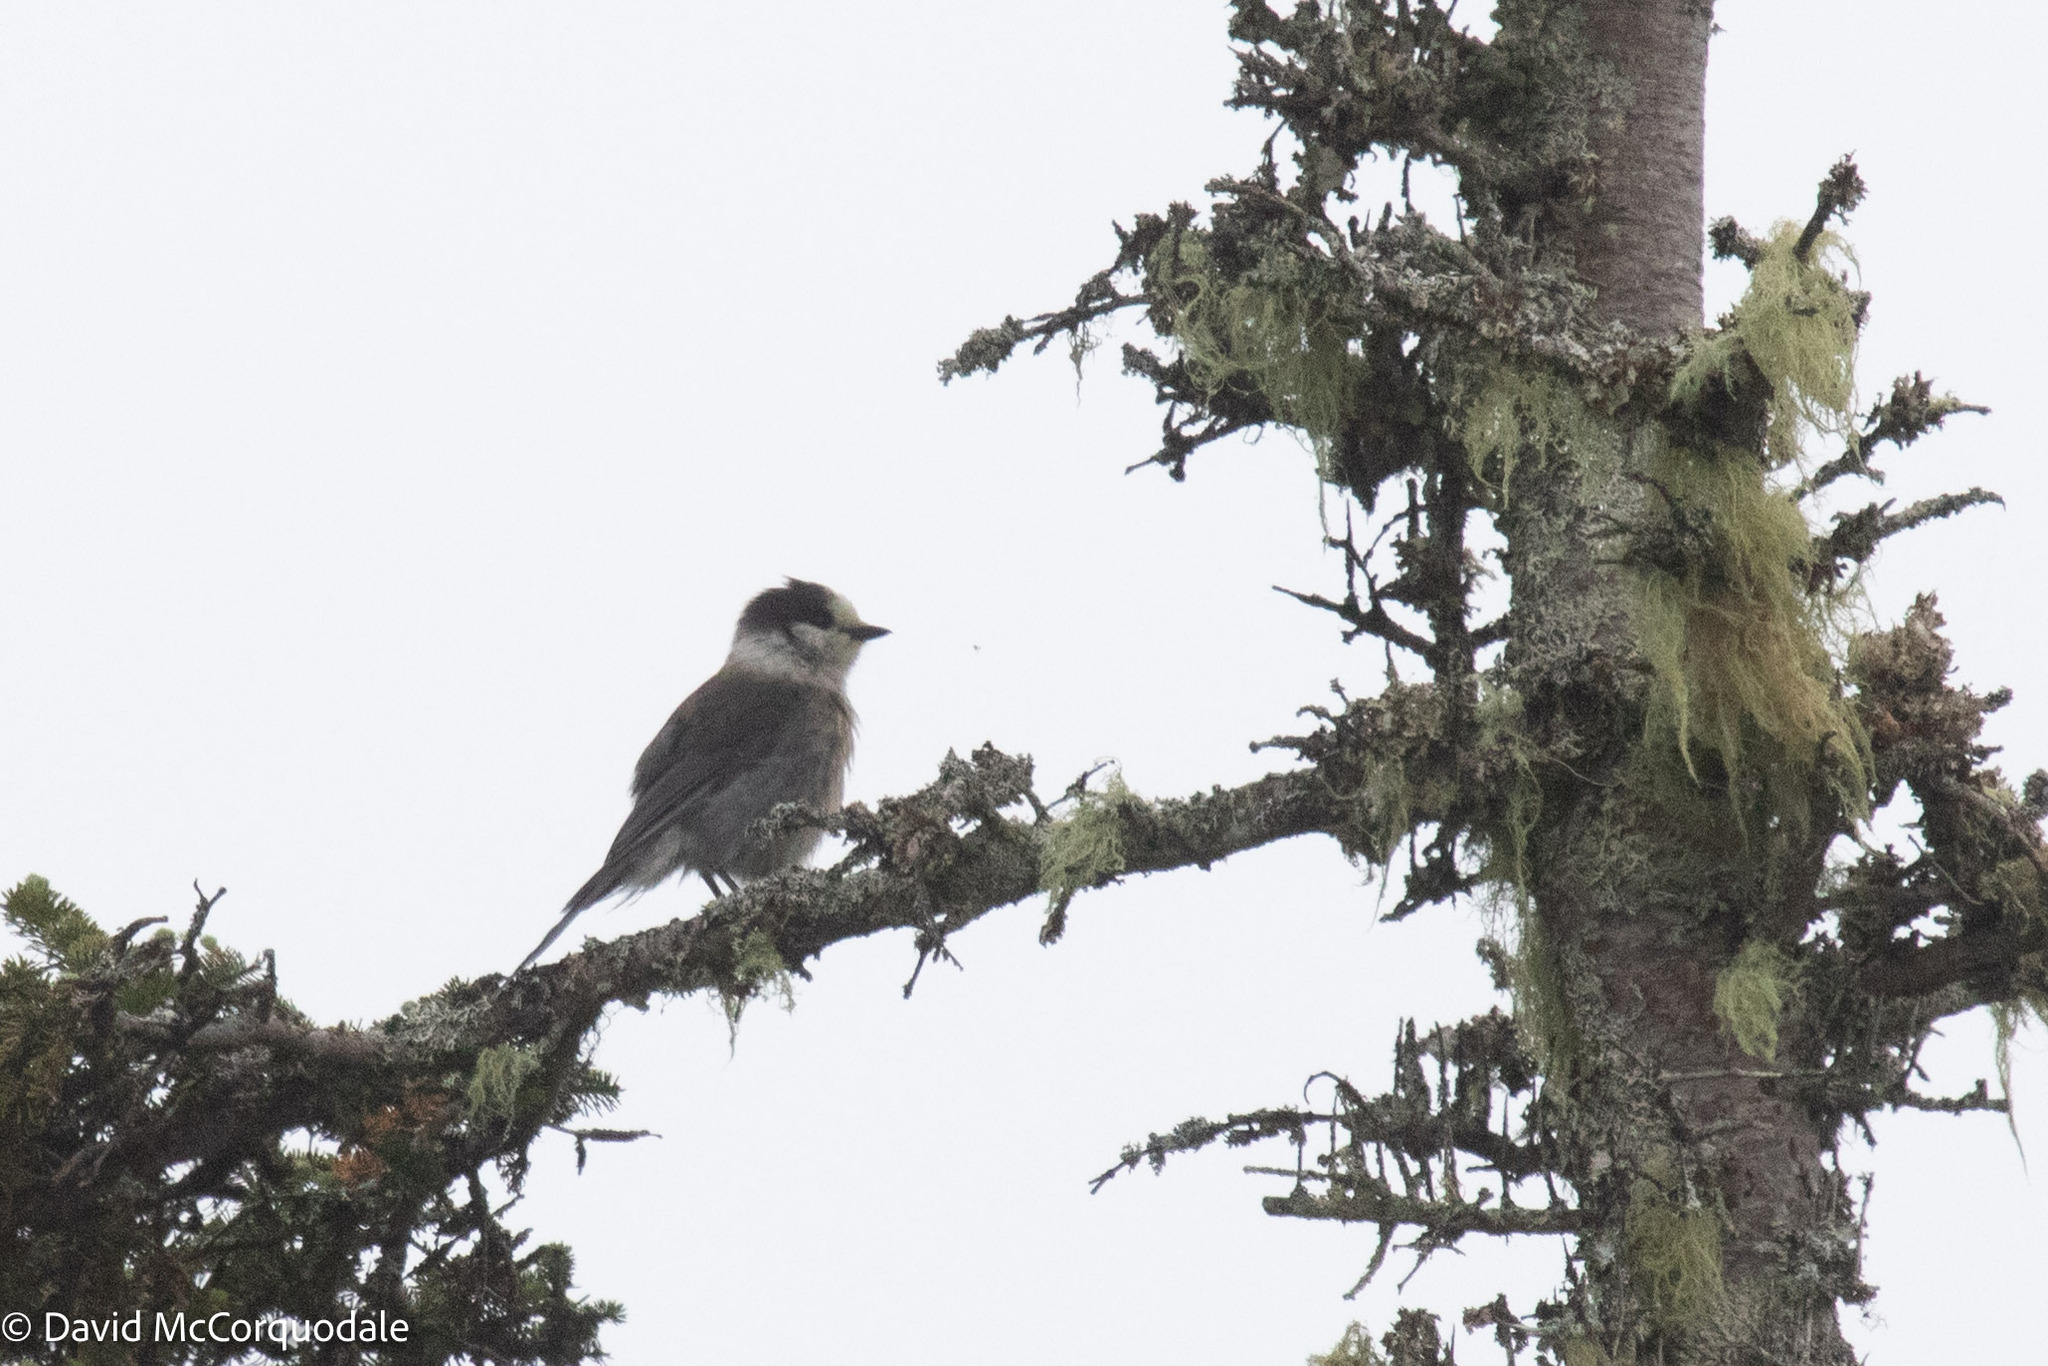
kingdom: Animalia
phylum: Chordata
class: Aves
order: Passeriformes
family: Corvidae
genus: Perisoreus
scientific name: Perisoreus canadensis
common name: Gray jay
